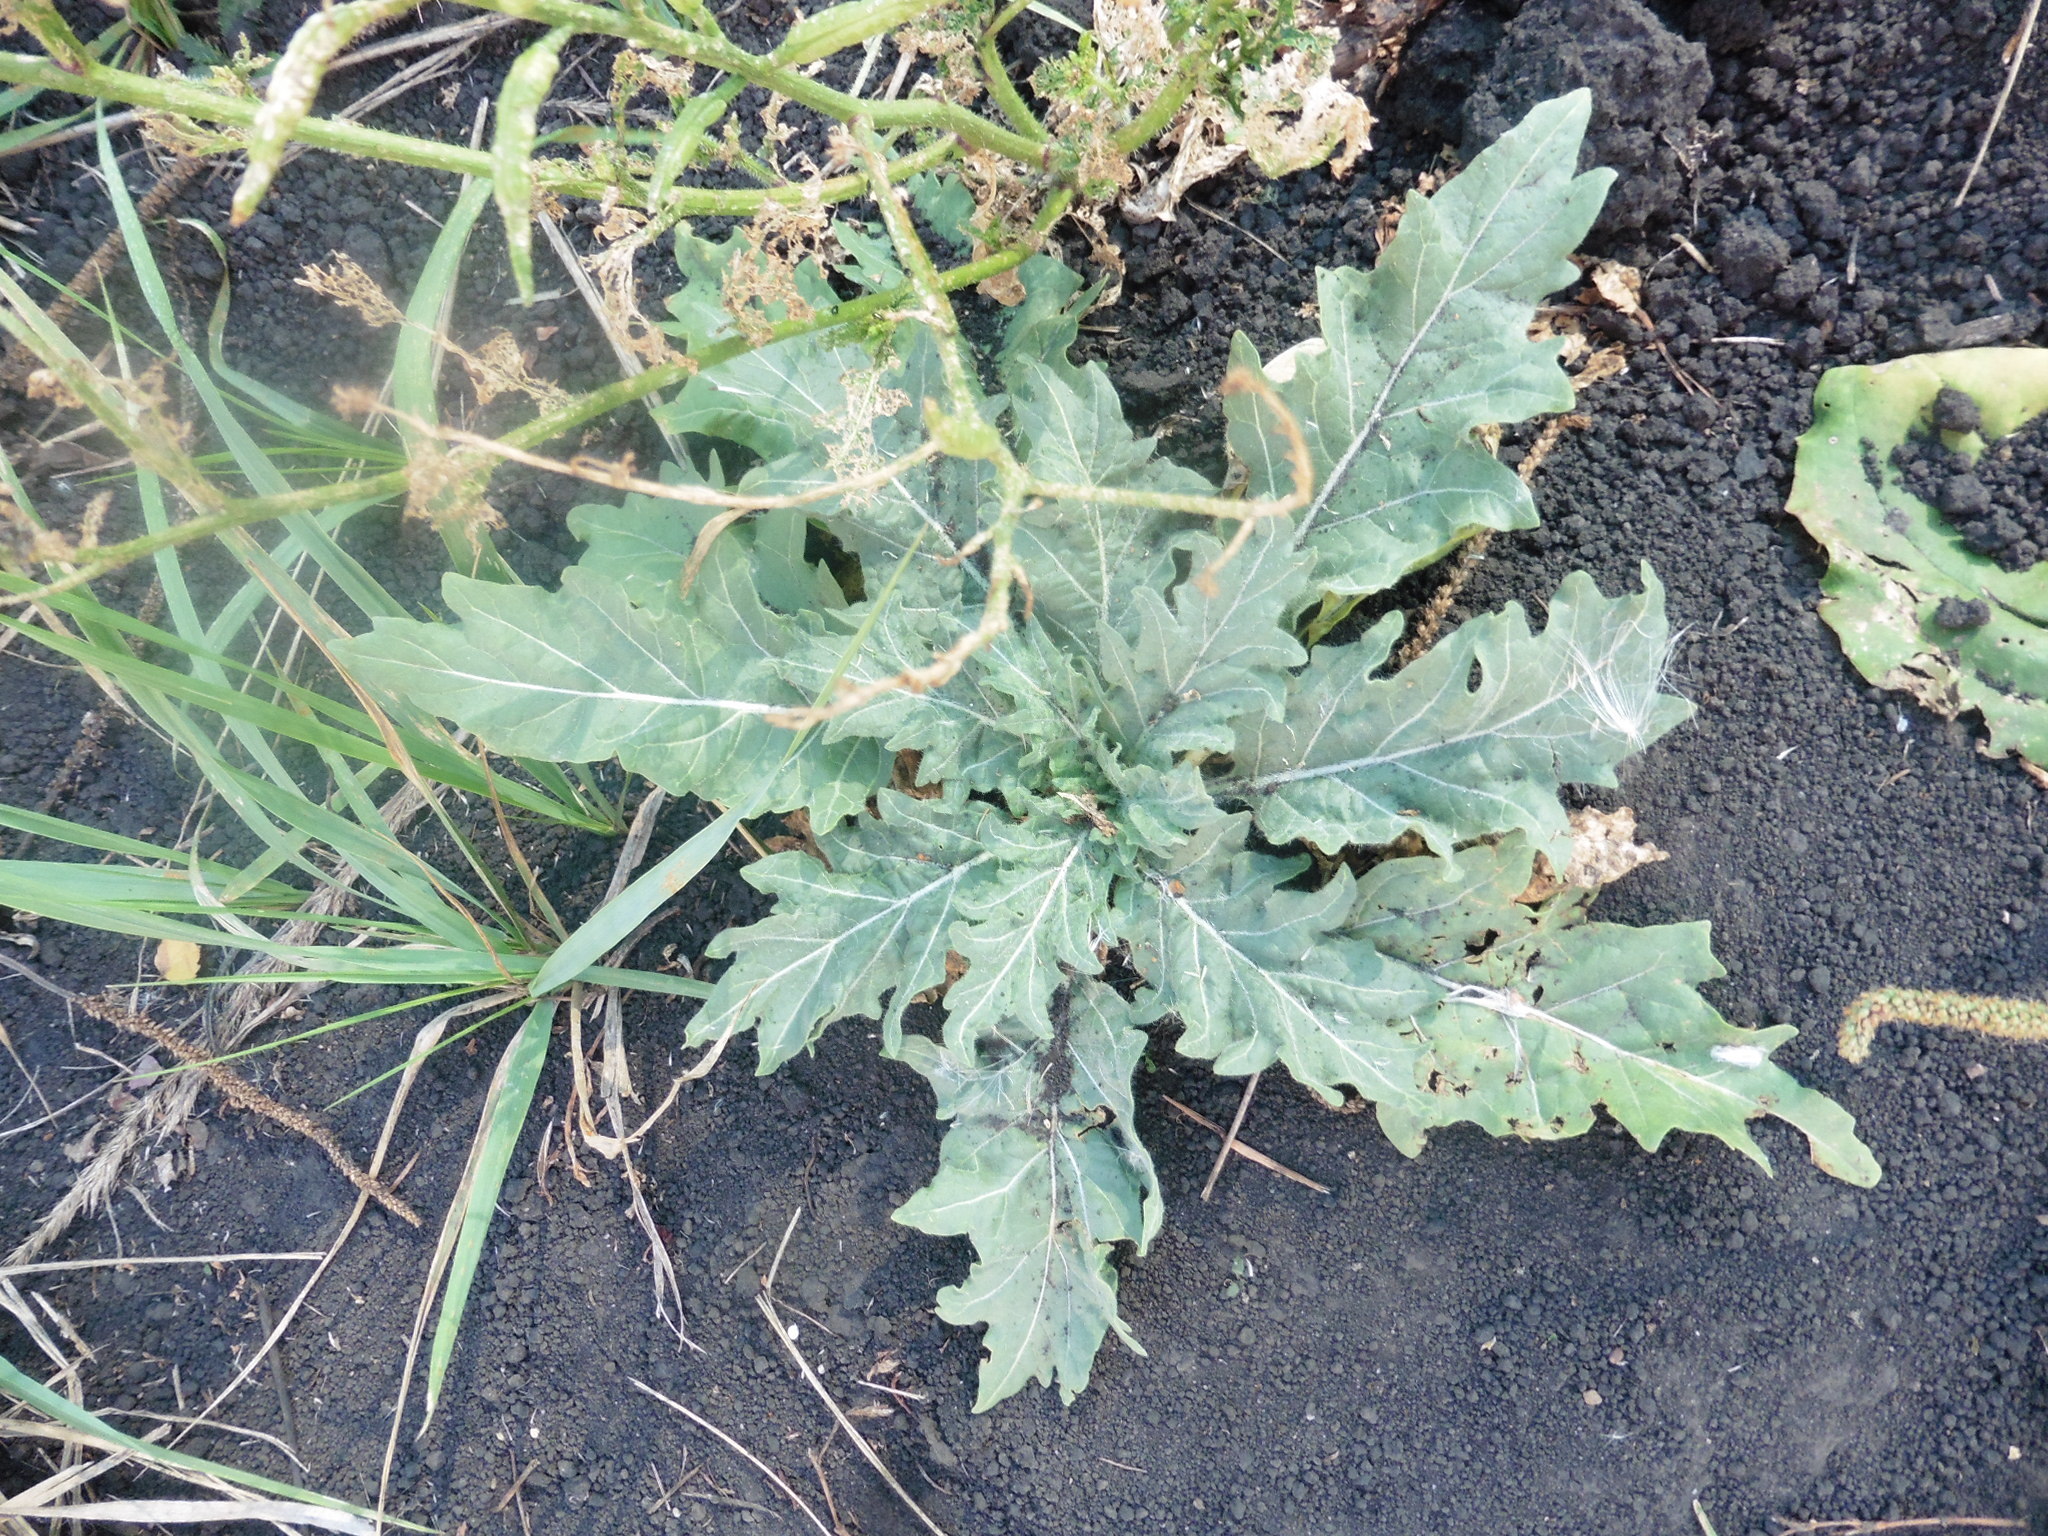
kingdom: Plantae
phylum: Tracheophyta
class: Magnoliopsida
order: Solanales
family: Solanaceae
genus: Hyoscyamus
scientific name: Hyoscyamus niger
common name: Henbane
